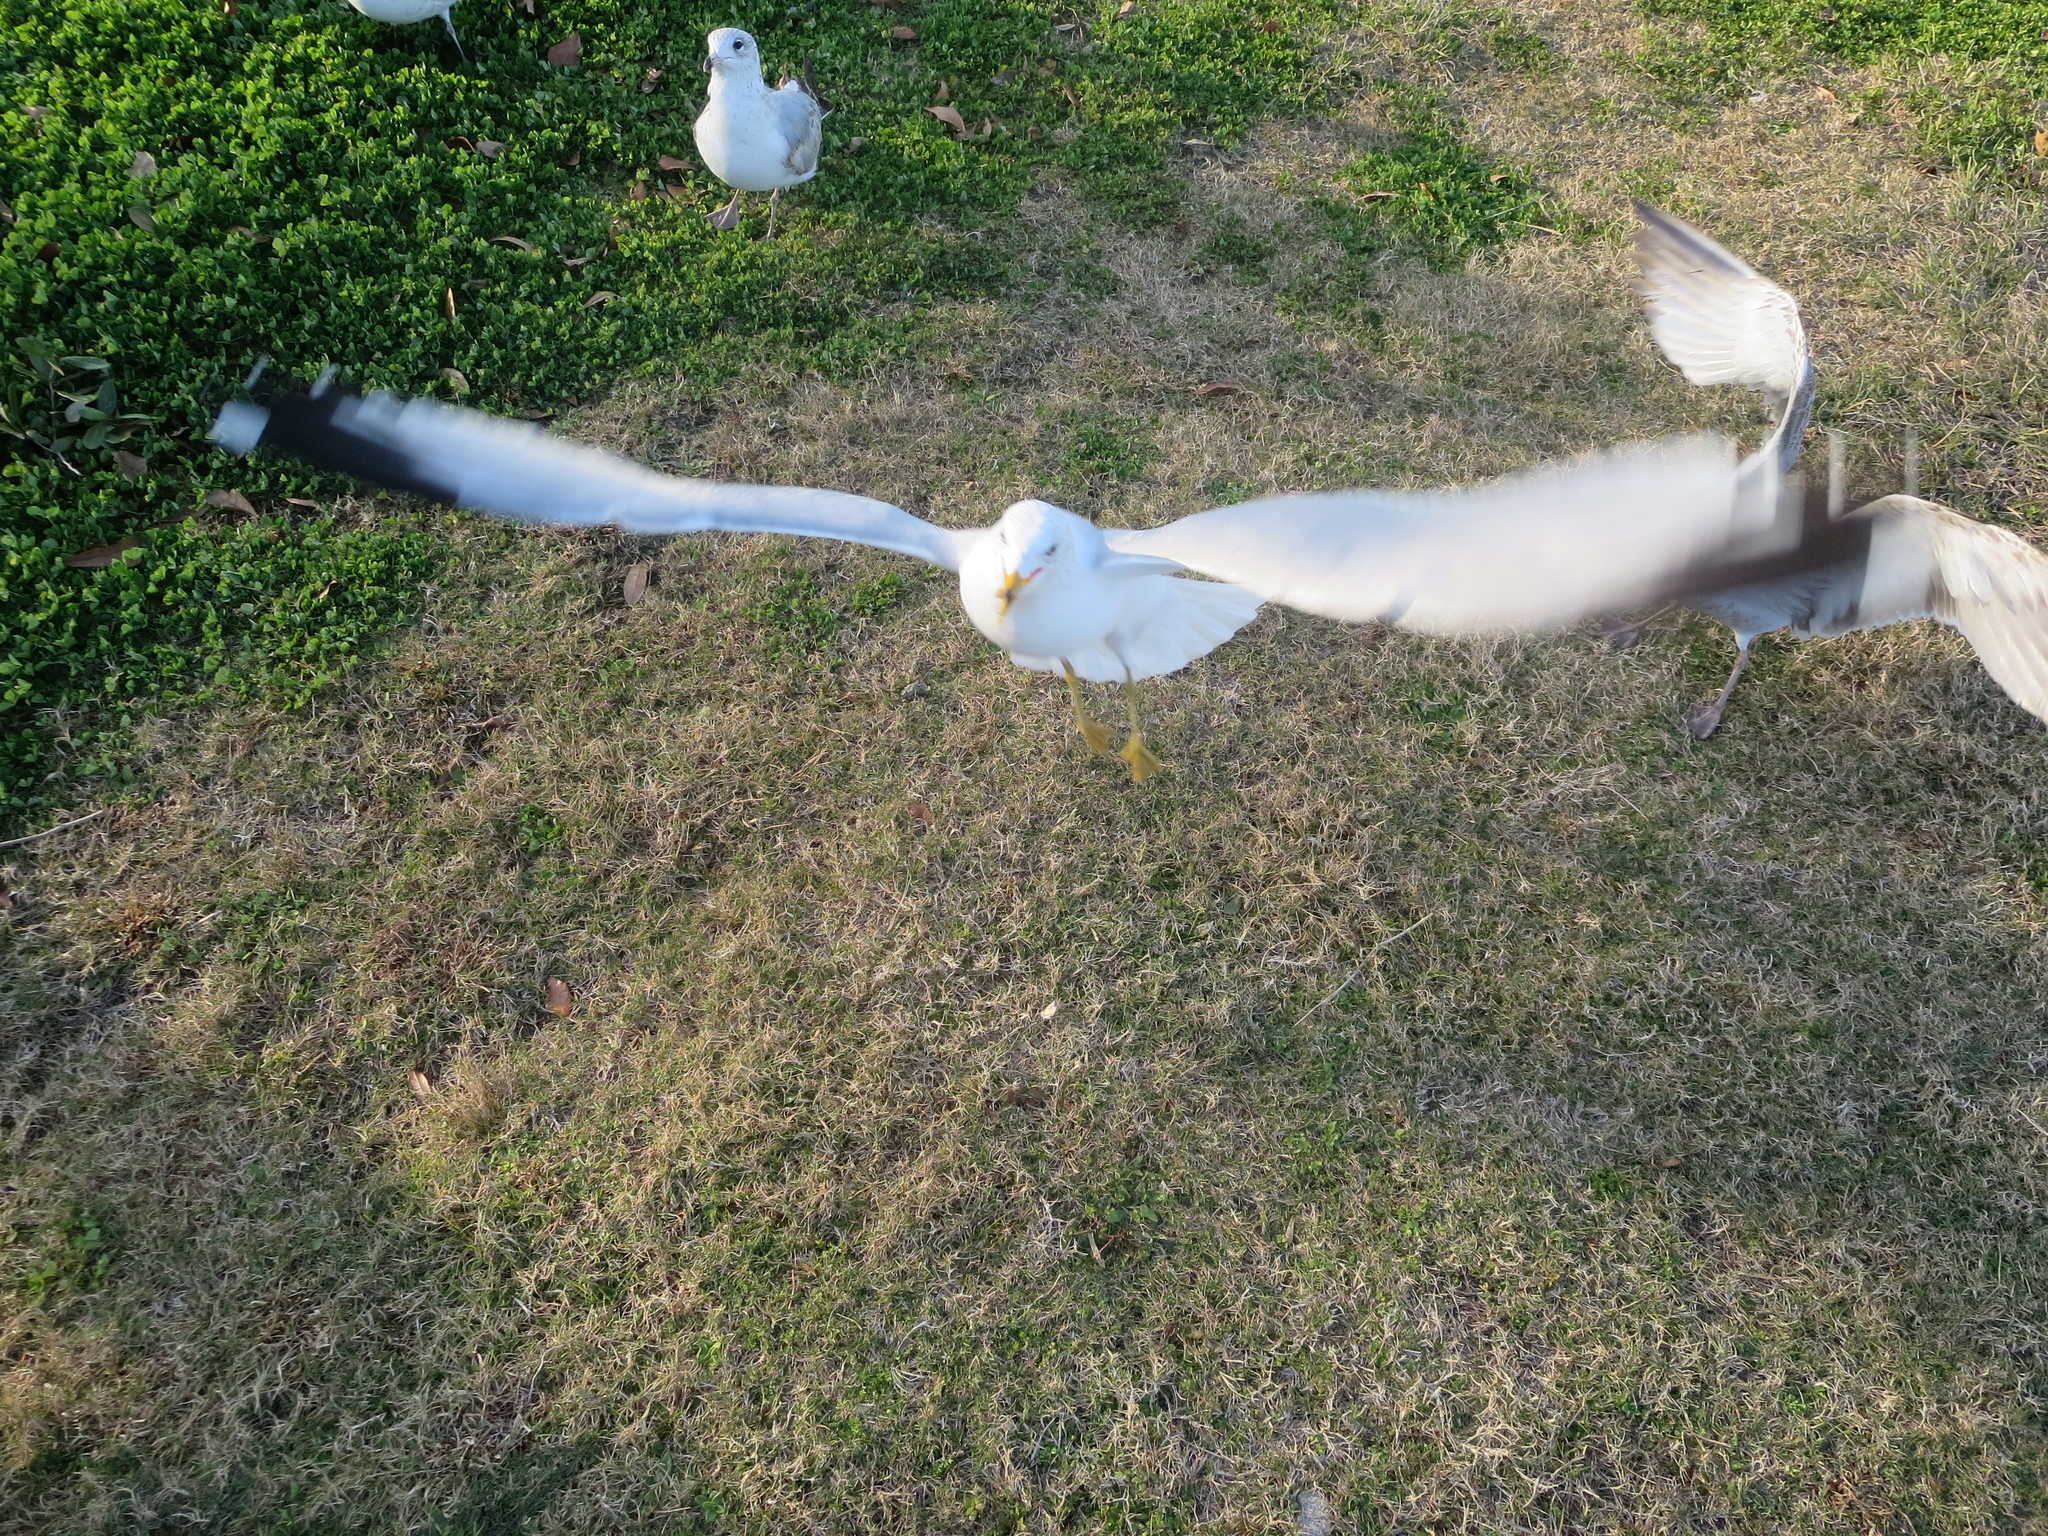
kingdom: Animalia
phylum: Chordata
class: Aves
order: Charadriiformes
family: Laridae
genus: Larus
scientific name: Larus delawarensis
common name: Ring-billed gull
